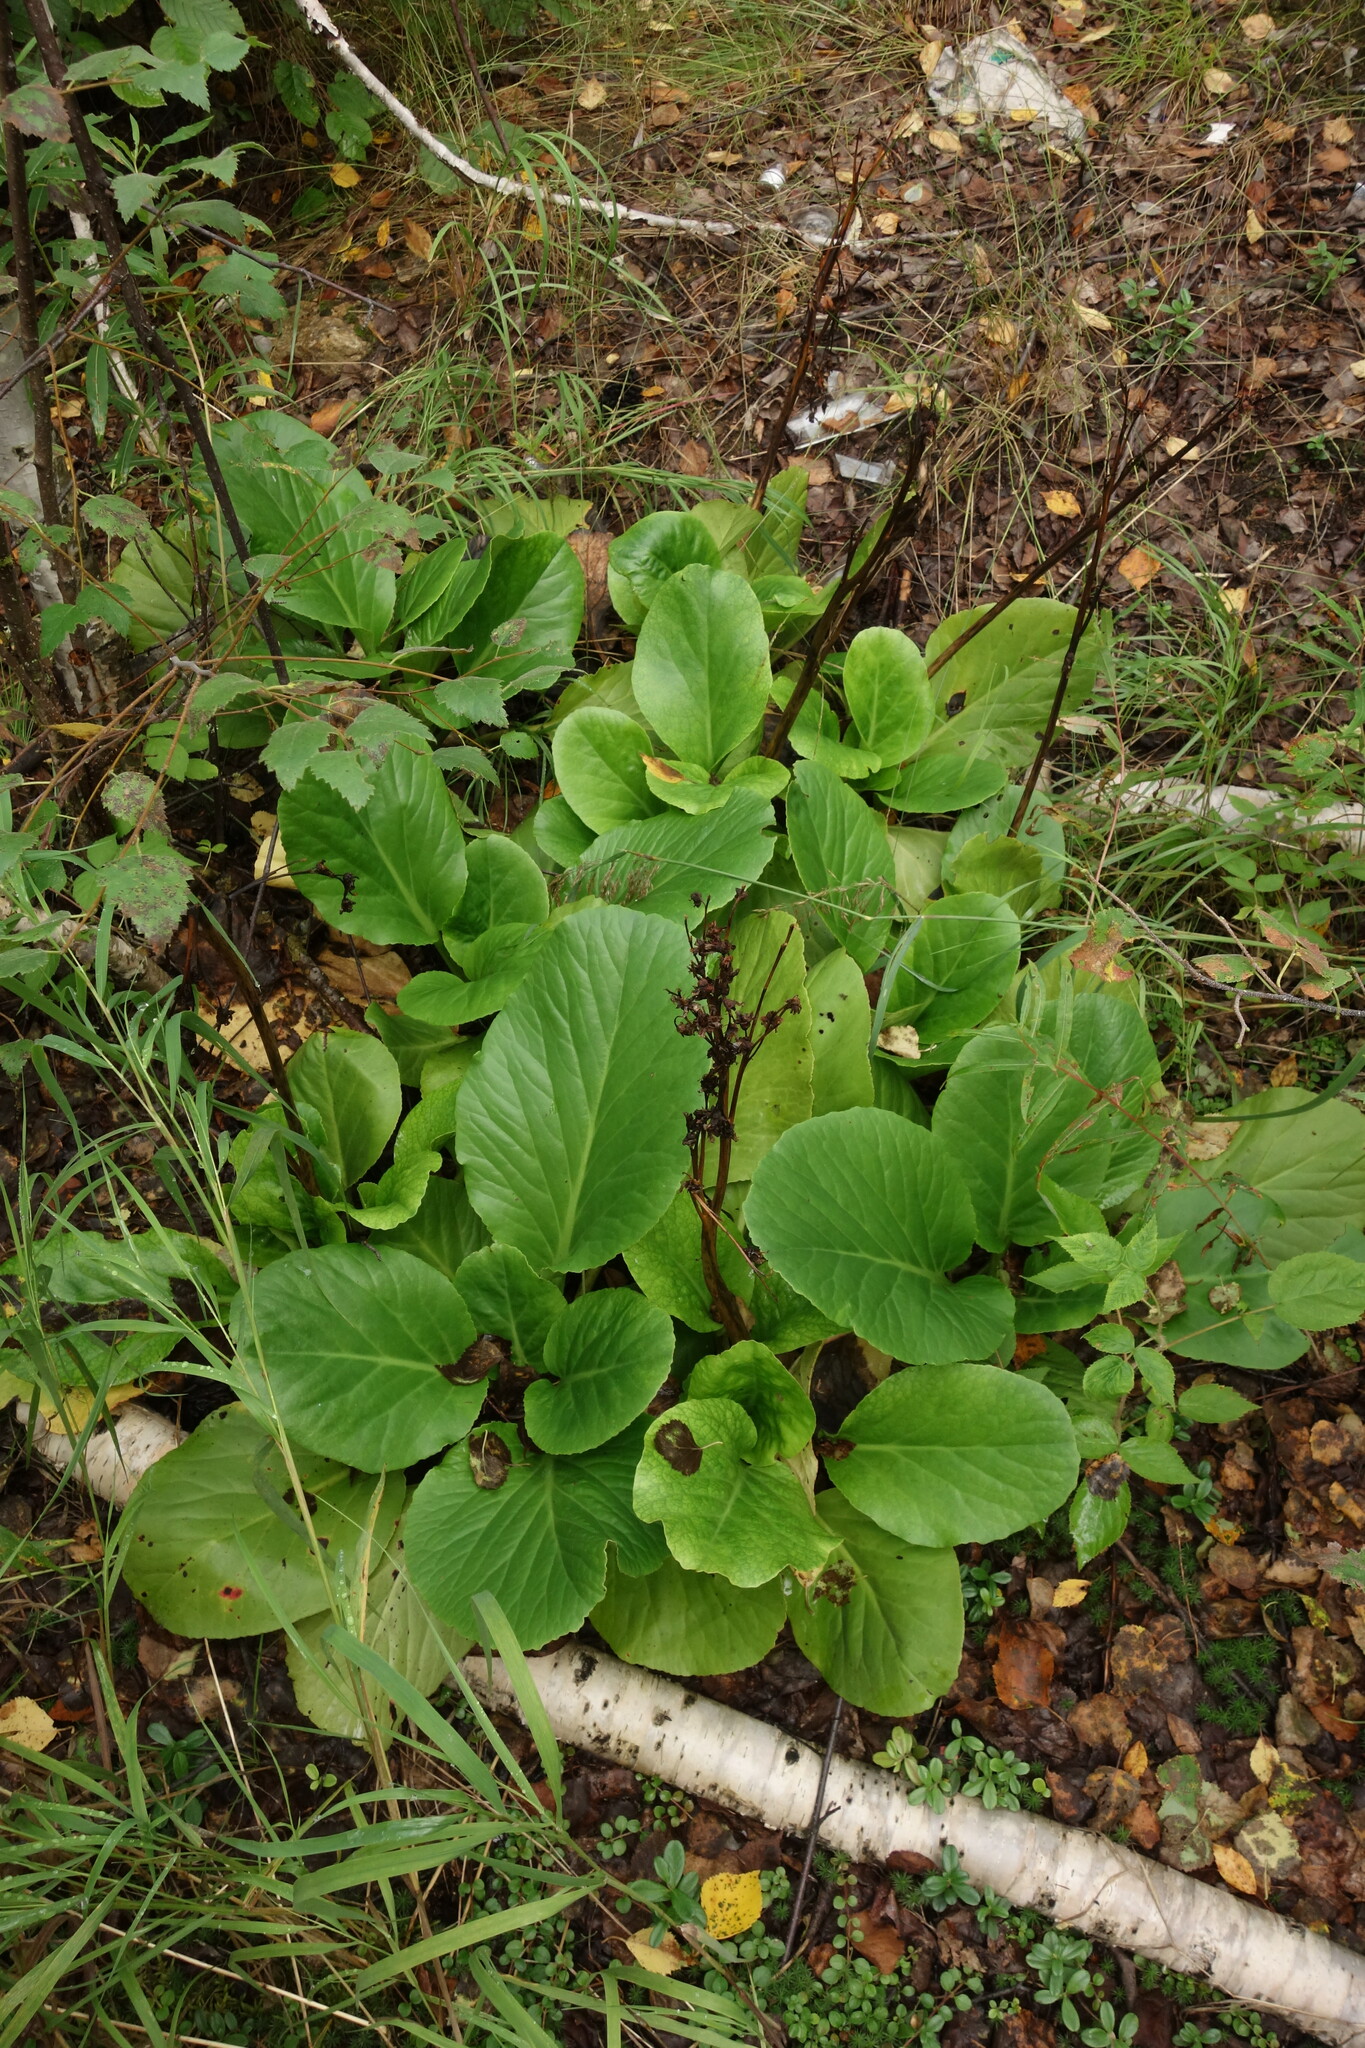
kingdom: Plantae
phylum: Tracheophyta
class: Magnoliopsida
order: Saxifragales
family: Saxifragaceae
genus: Bergenia
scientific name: Bergenia crassifolia
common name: Elephant-ears
